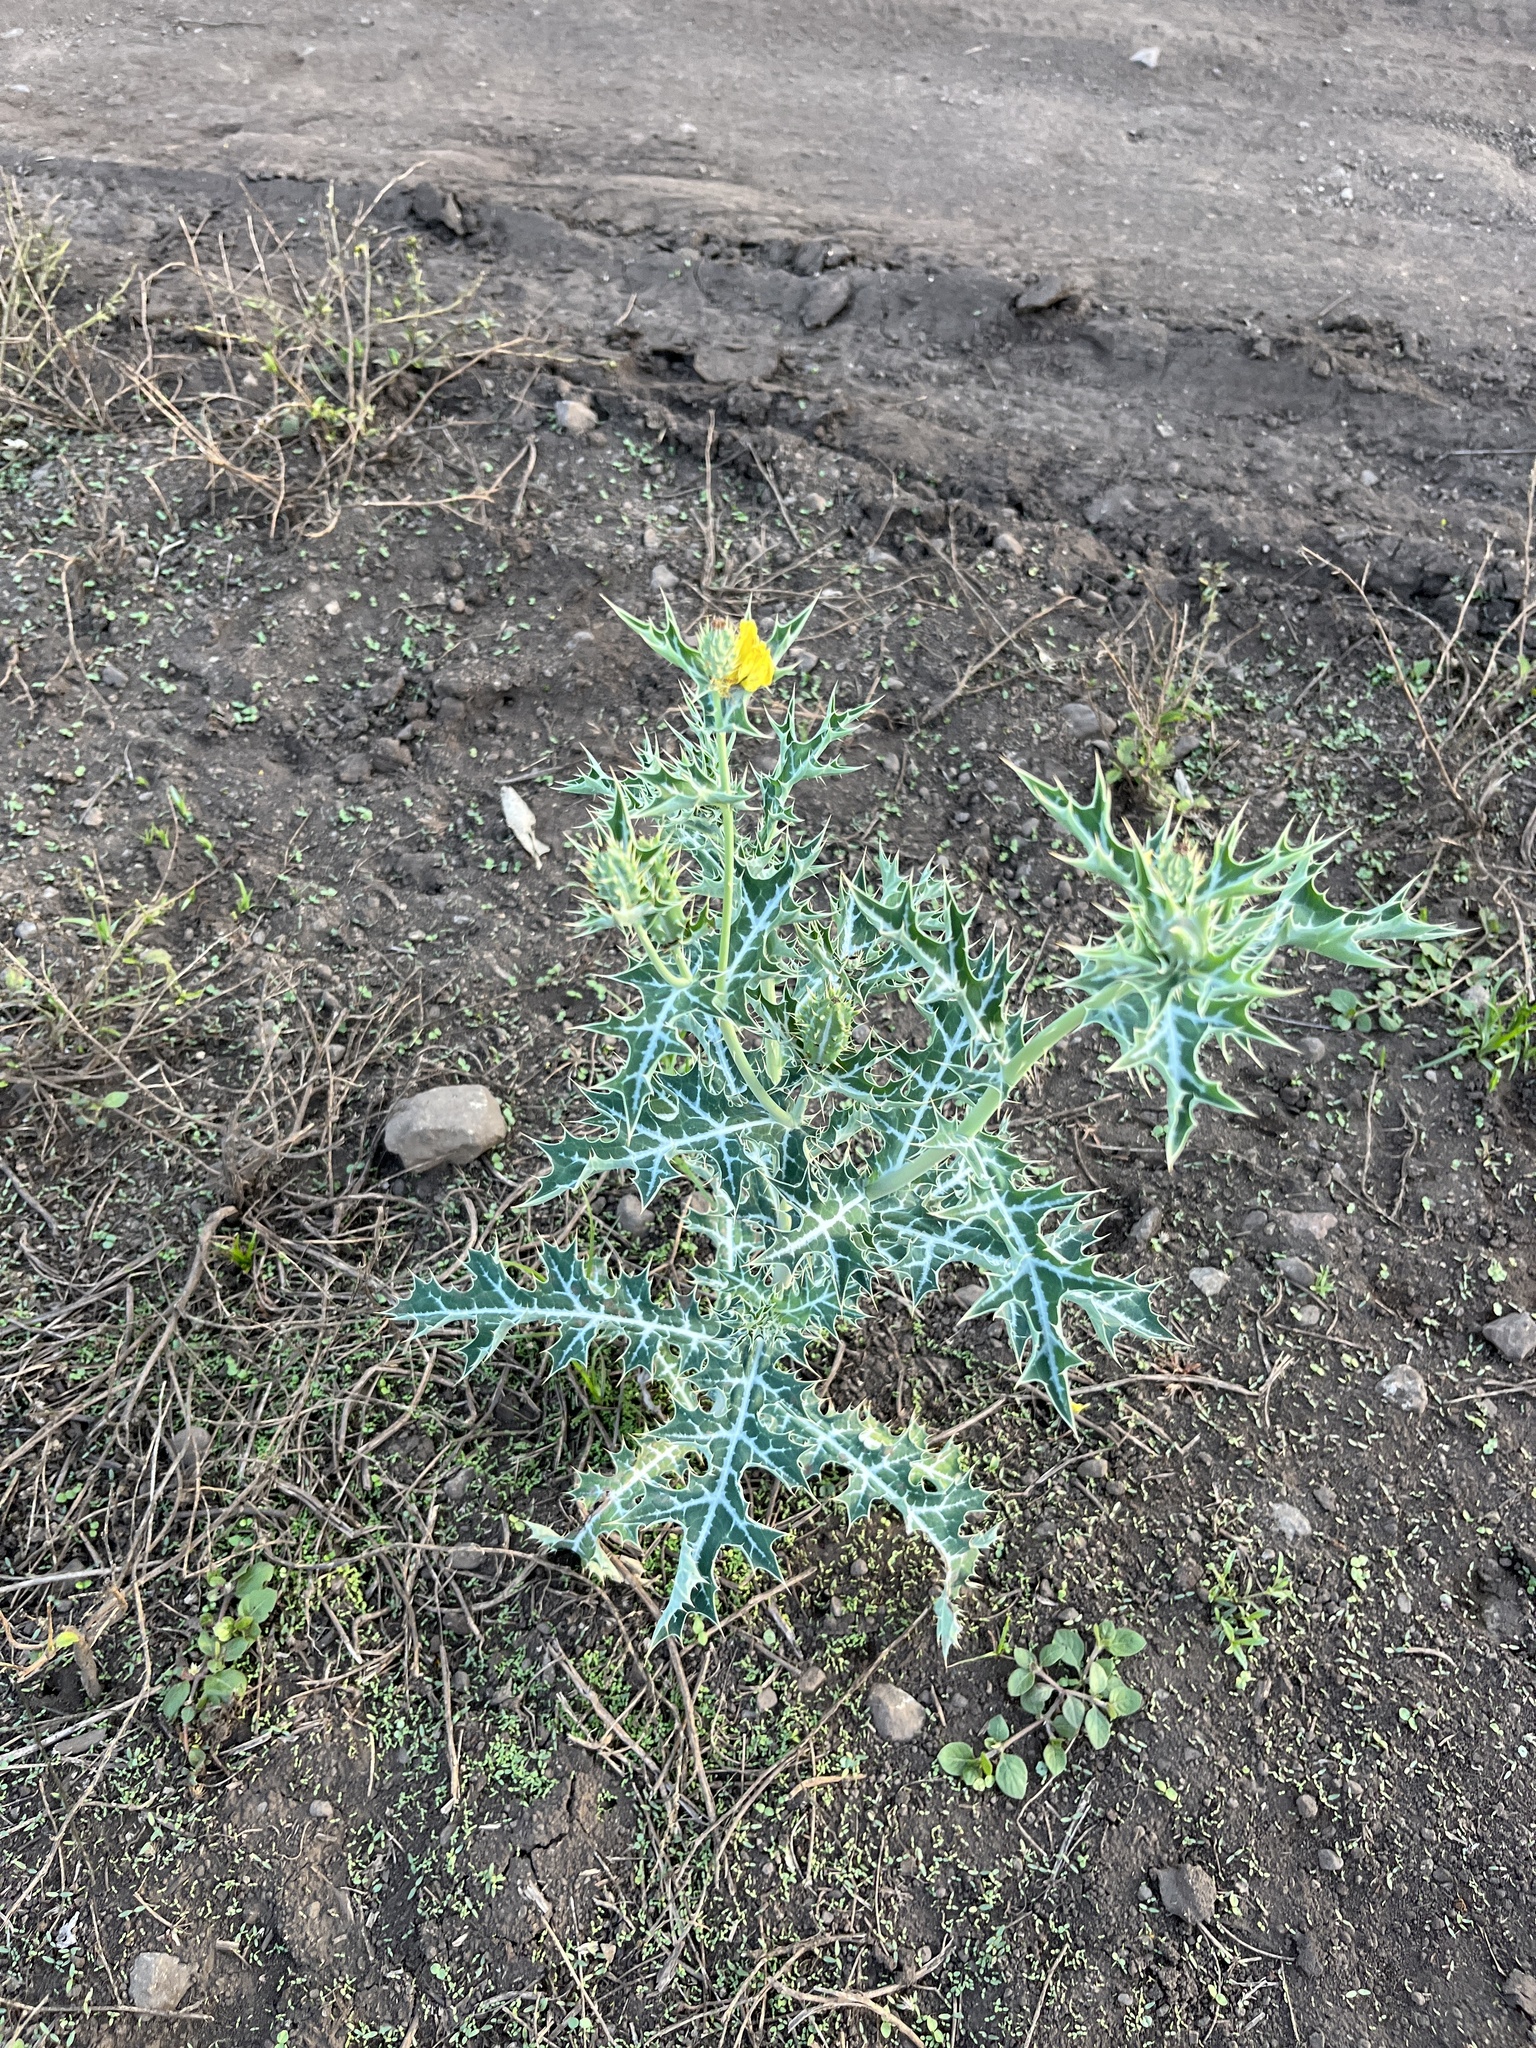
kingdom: Plantae
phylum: Tracheophyta
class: Magnoliopsida
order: Ranunculales
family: Papaveraceae
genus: Argemone
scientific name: Argemone mexicana
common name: Mexican poppy
